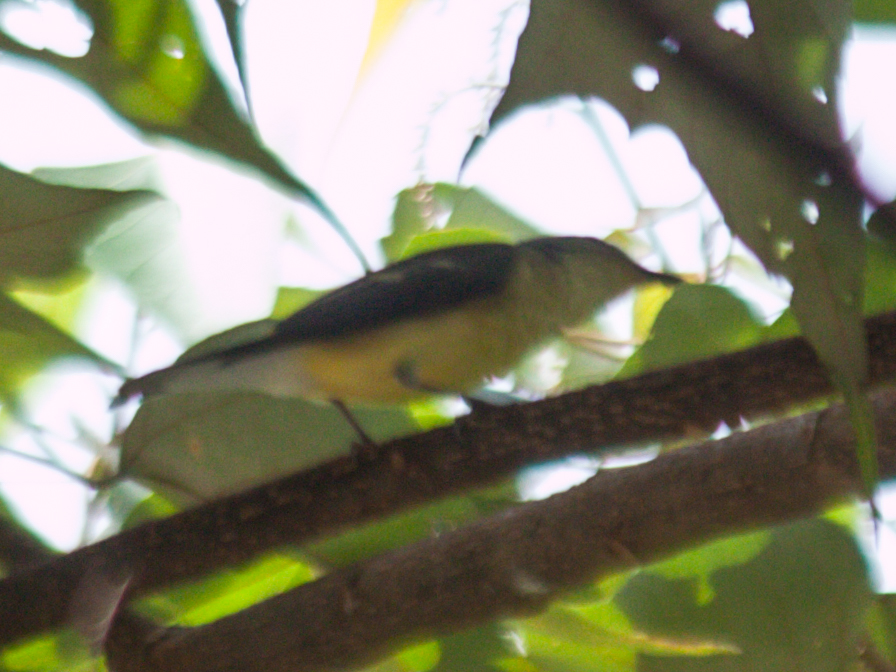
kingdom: Animalia
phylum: Chordata
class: Aves
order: Passeriformes
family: Muscicapidae
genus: Ficedula
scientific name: Ficedula zanthopygia
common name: Yellow-rumped flycatcher
